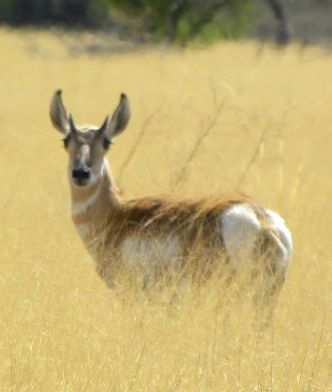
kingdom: Animalia
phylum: Chordata
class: Mammalia
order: Artiodactyla
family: Antilocapridae
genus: Antilocapra
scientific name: Antilocapra americana
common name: Pronghorn
